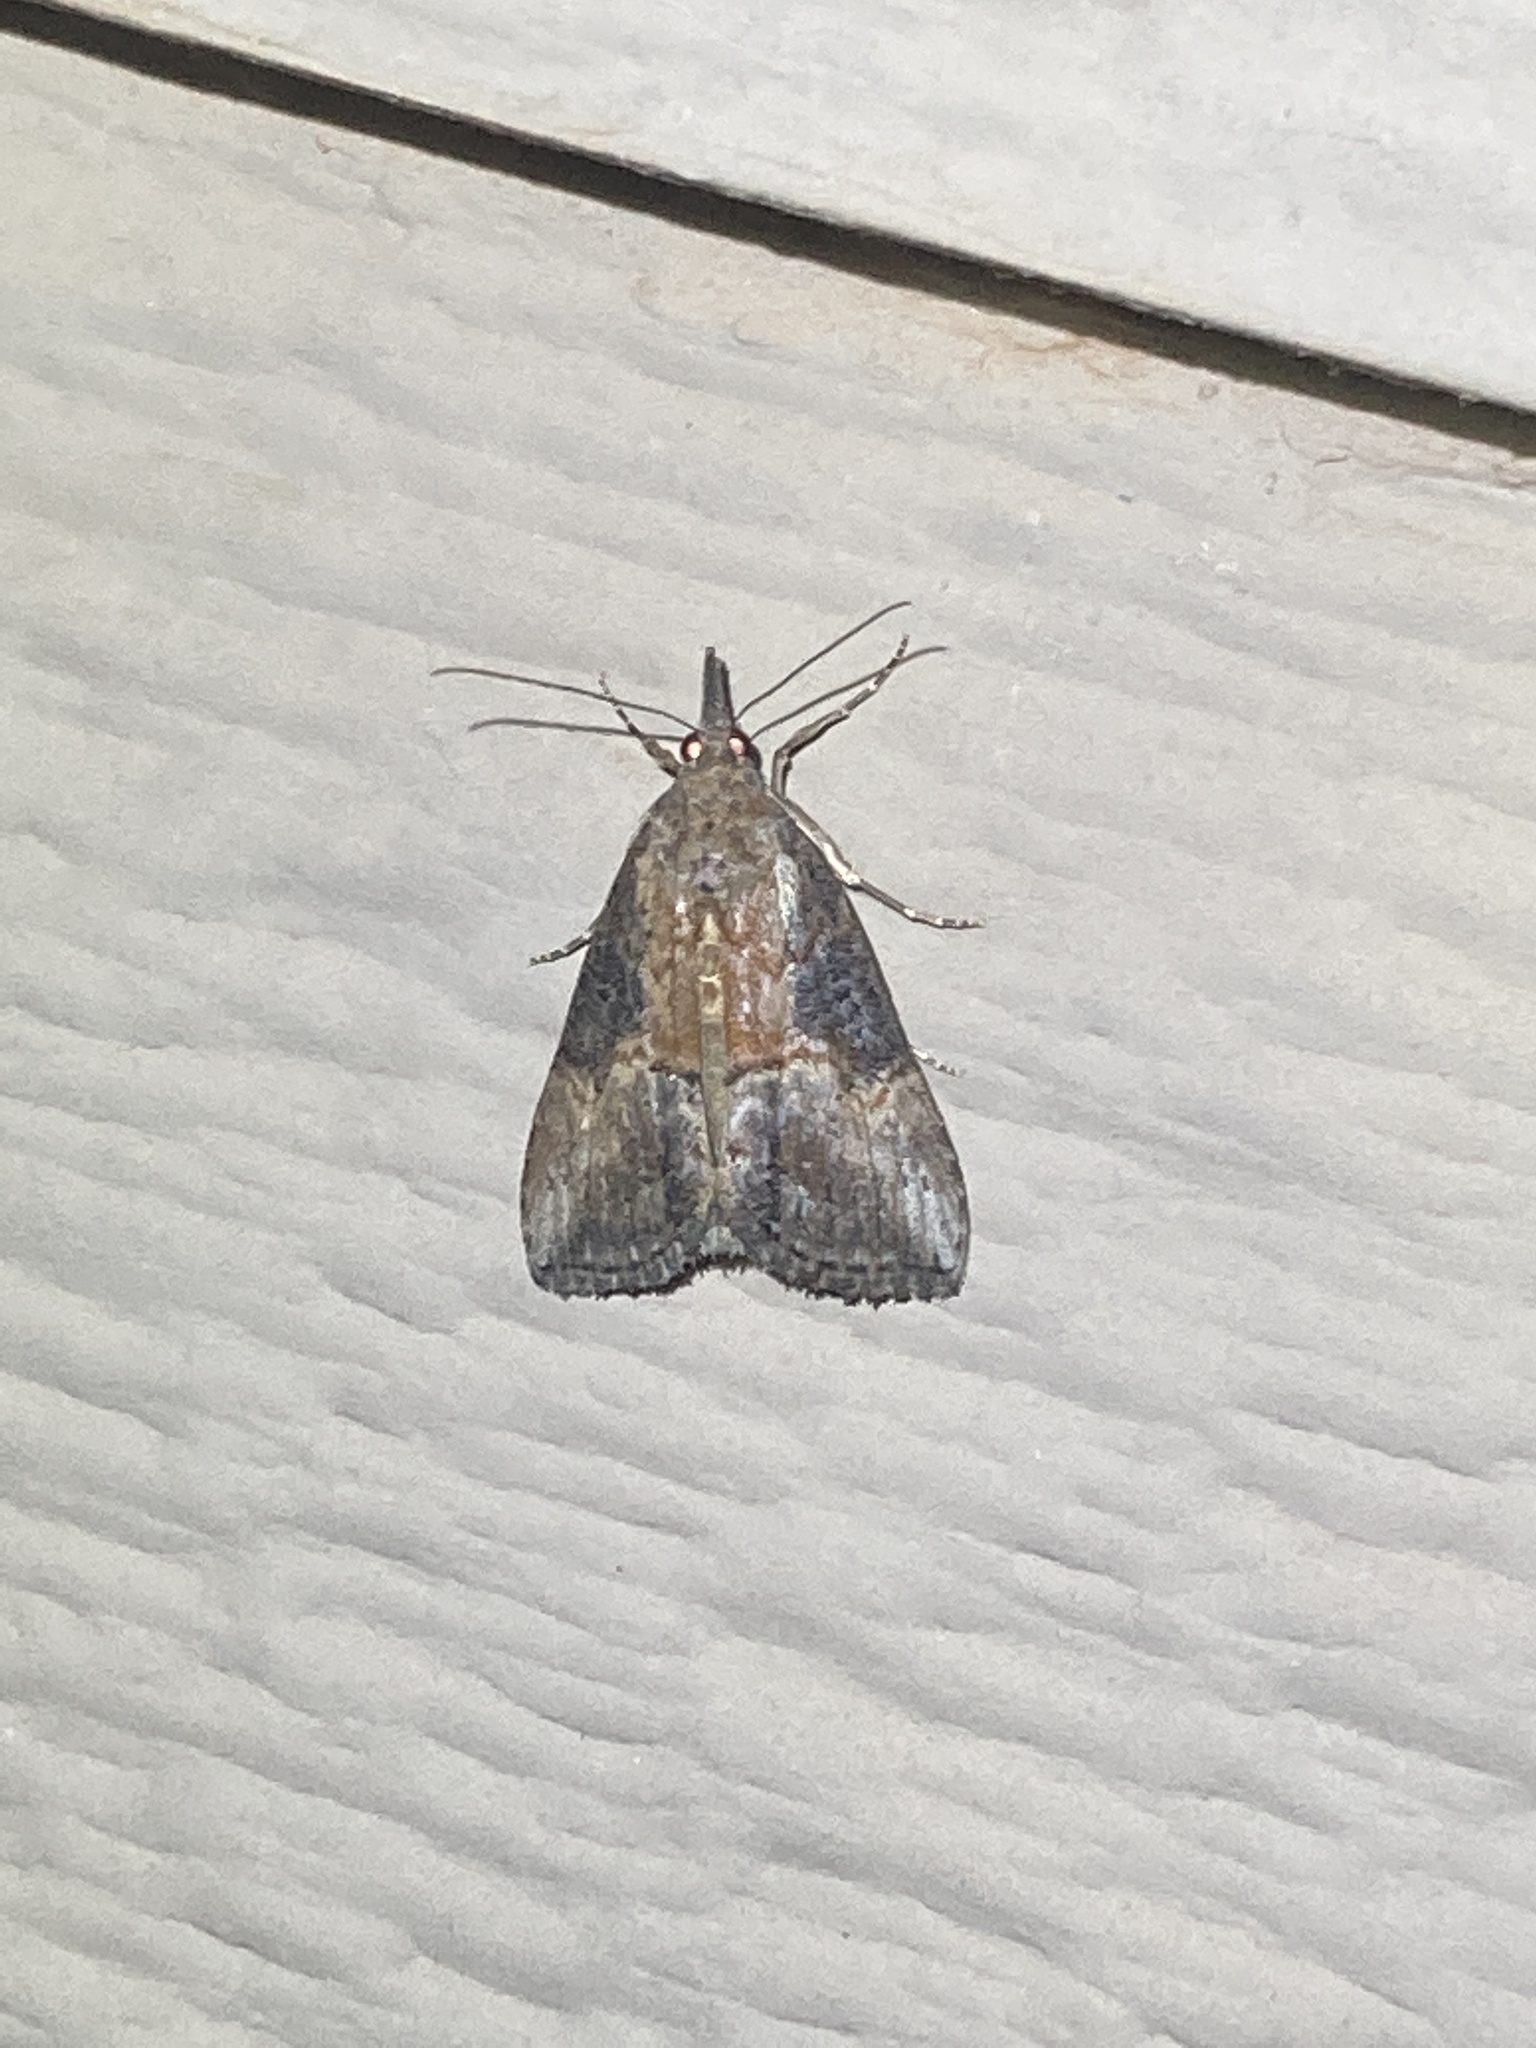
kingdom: Animalia
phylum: Arthropoda
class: Insecta
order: Lepidoptera
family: Erebidae
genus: Hypena
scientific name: Hypena scabra
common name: Green cloverworm
